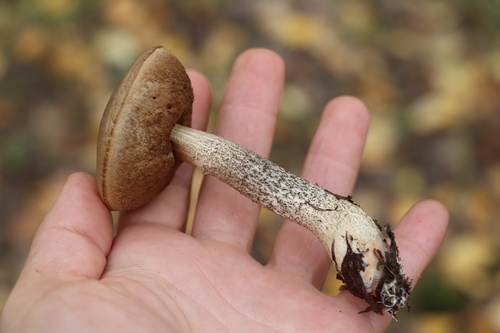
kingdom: Fungi
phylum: Basidiomycota
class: Agaricomycetes
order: Boletales
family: Boletaceae
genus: Leccinum
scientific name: Leccinum scabrum
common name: Blushing bolete
